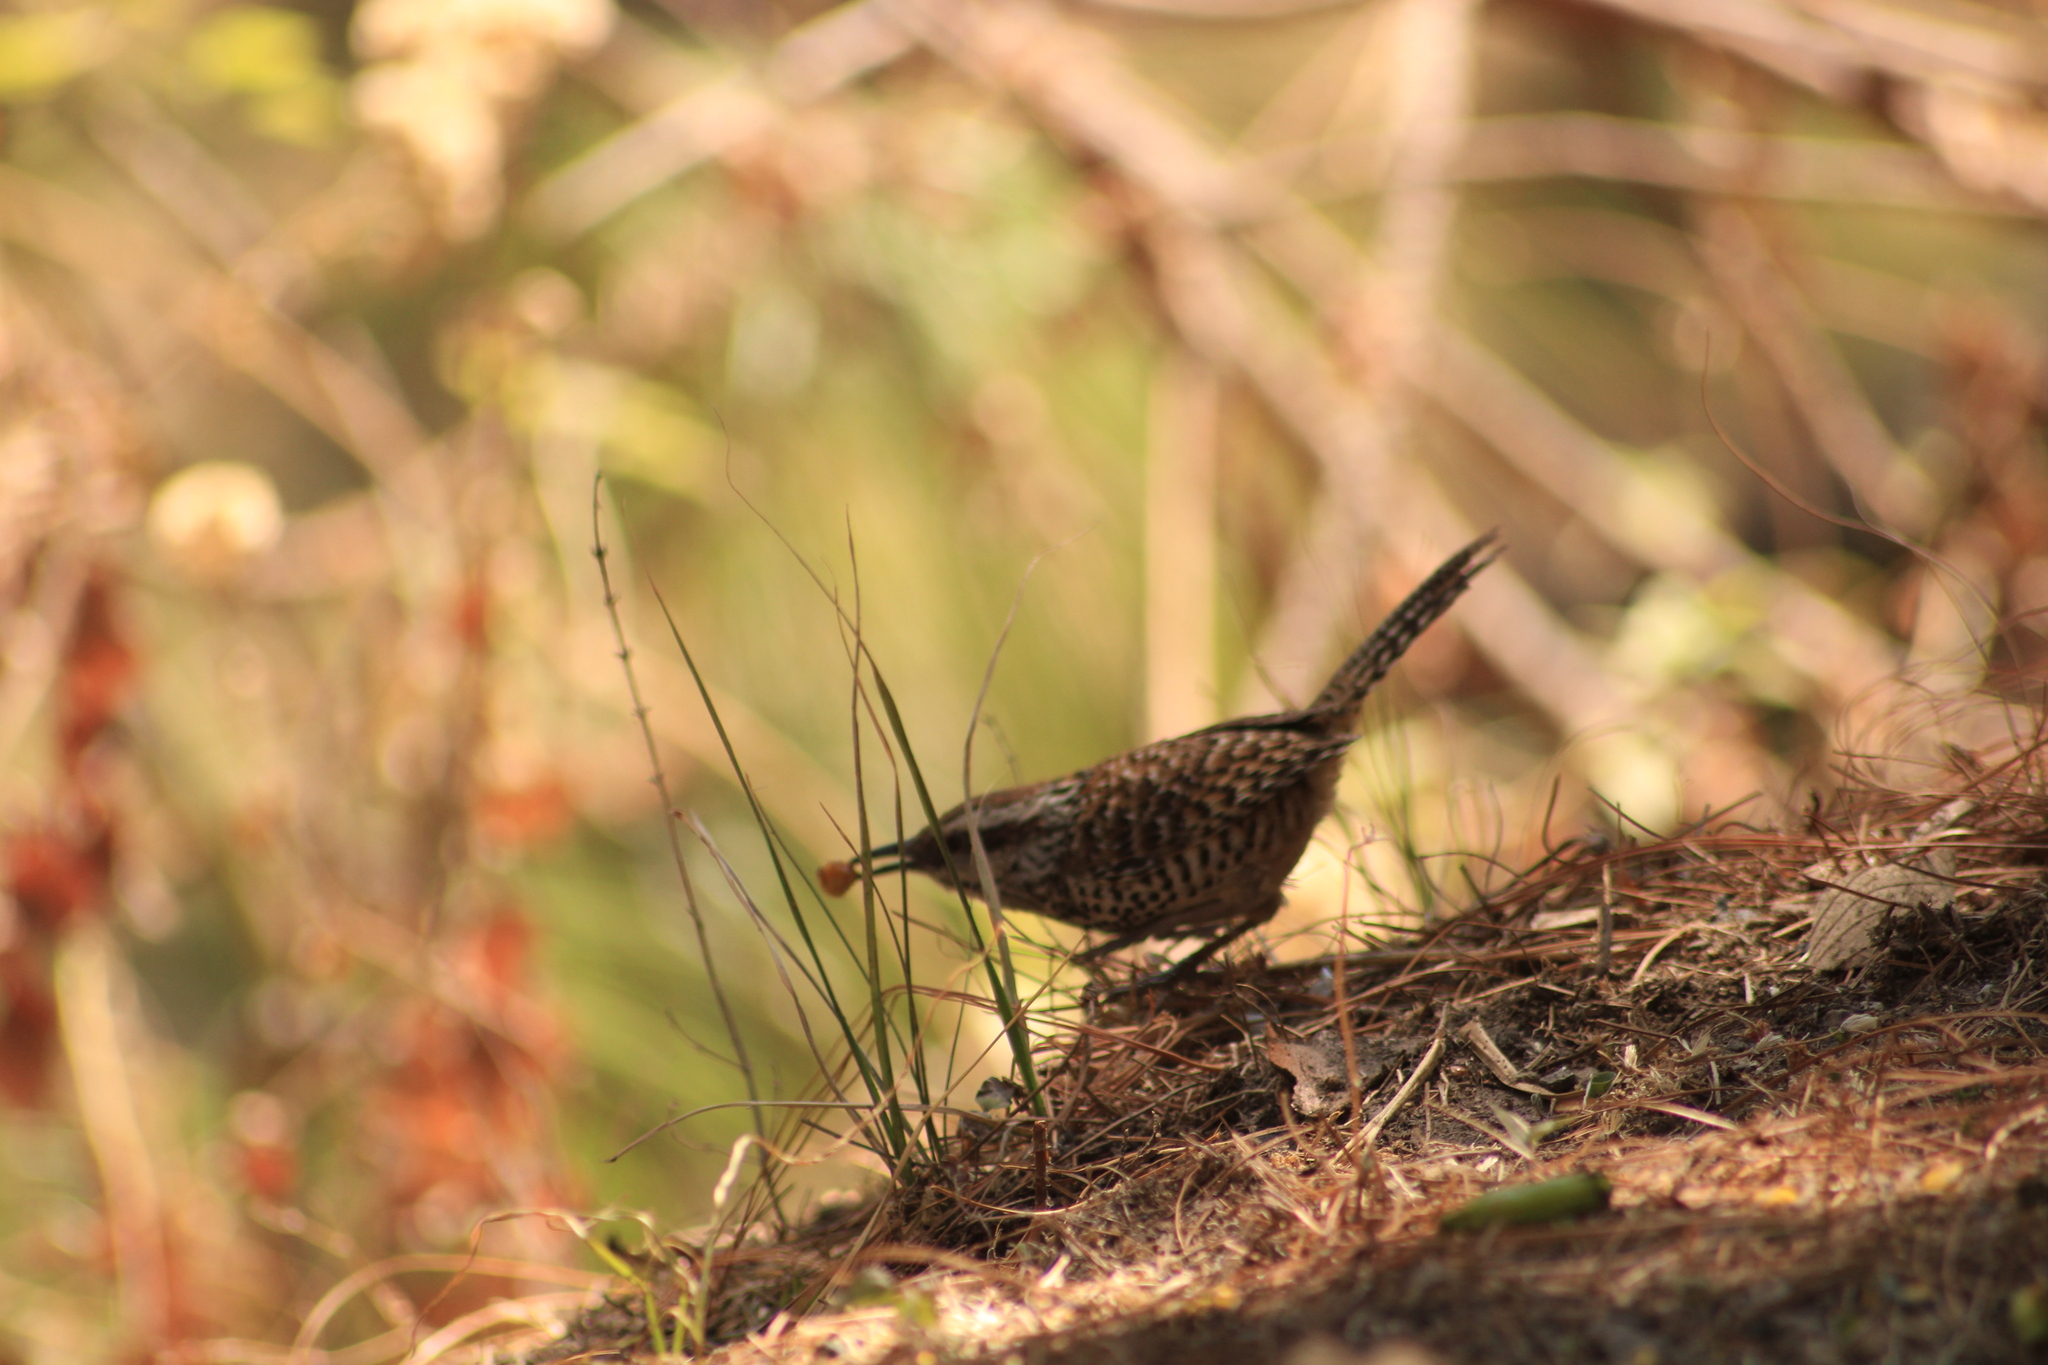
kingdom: Animalia
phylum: Chordata
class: Aves
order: Passeriformes
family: Troglodytidae
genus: Campylorhynchus
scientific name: Campylorhynchus gularis
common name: Spotted wren
